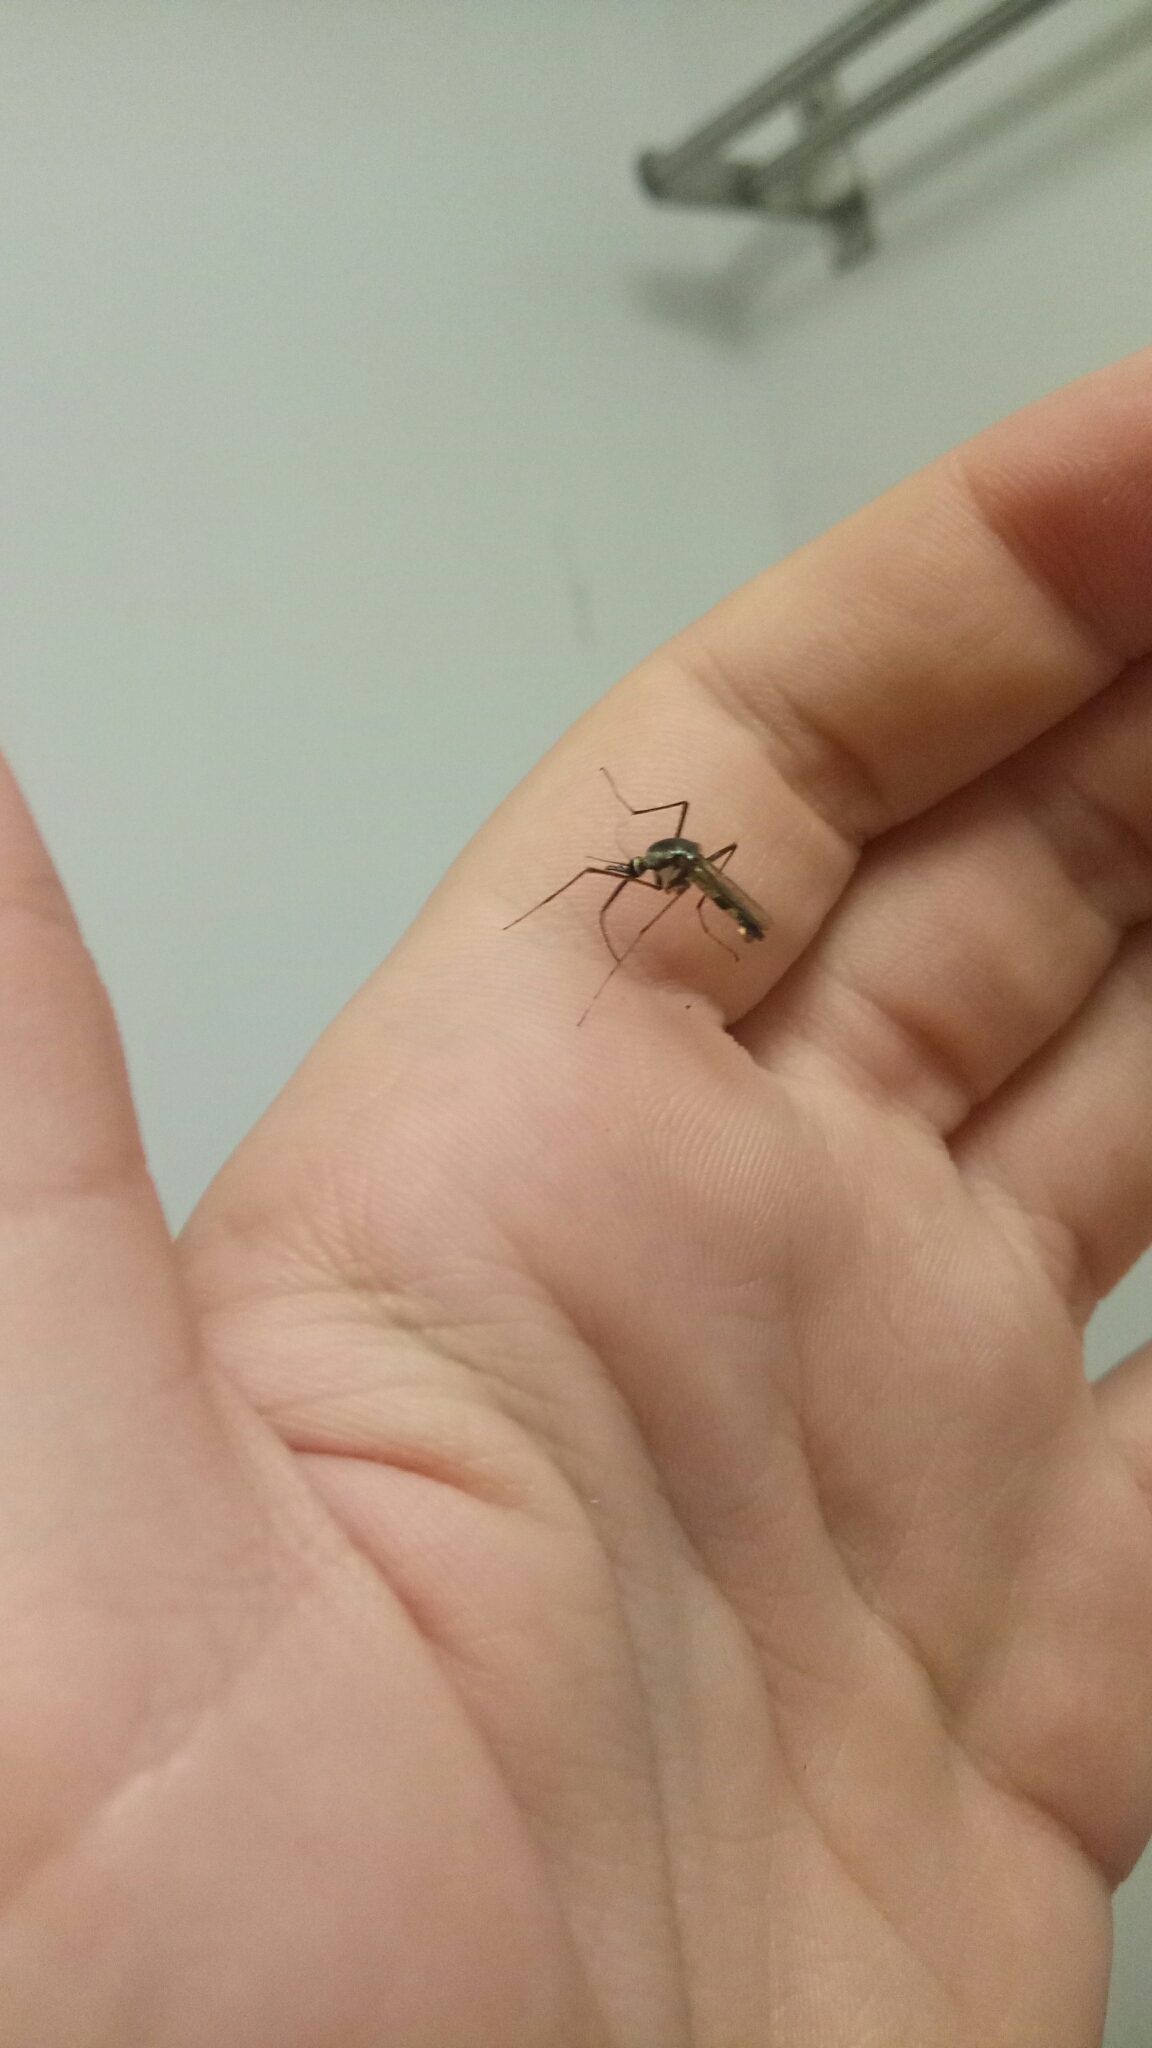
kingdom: Animalia
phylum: Arthropoda
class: Insecta
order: Diptera
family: Culicidae
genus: Toxorhynchites
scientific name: Toxorhynchites speciosus
